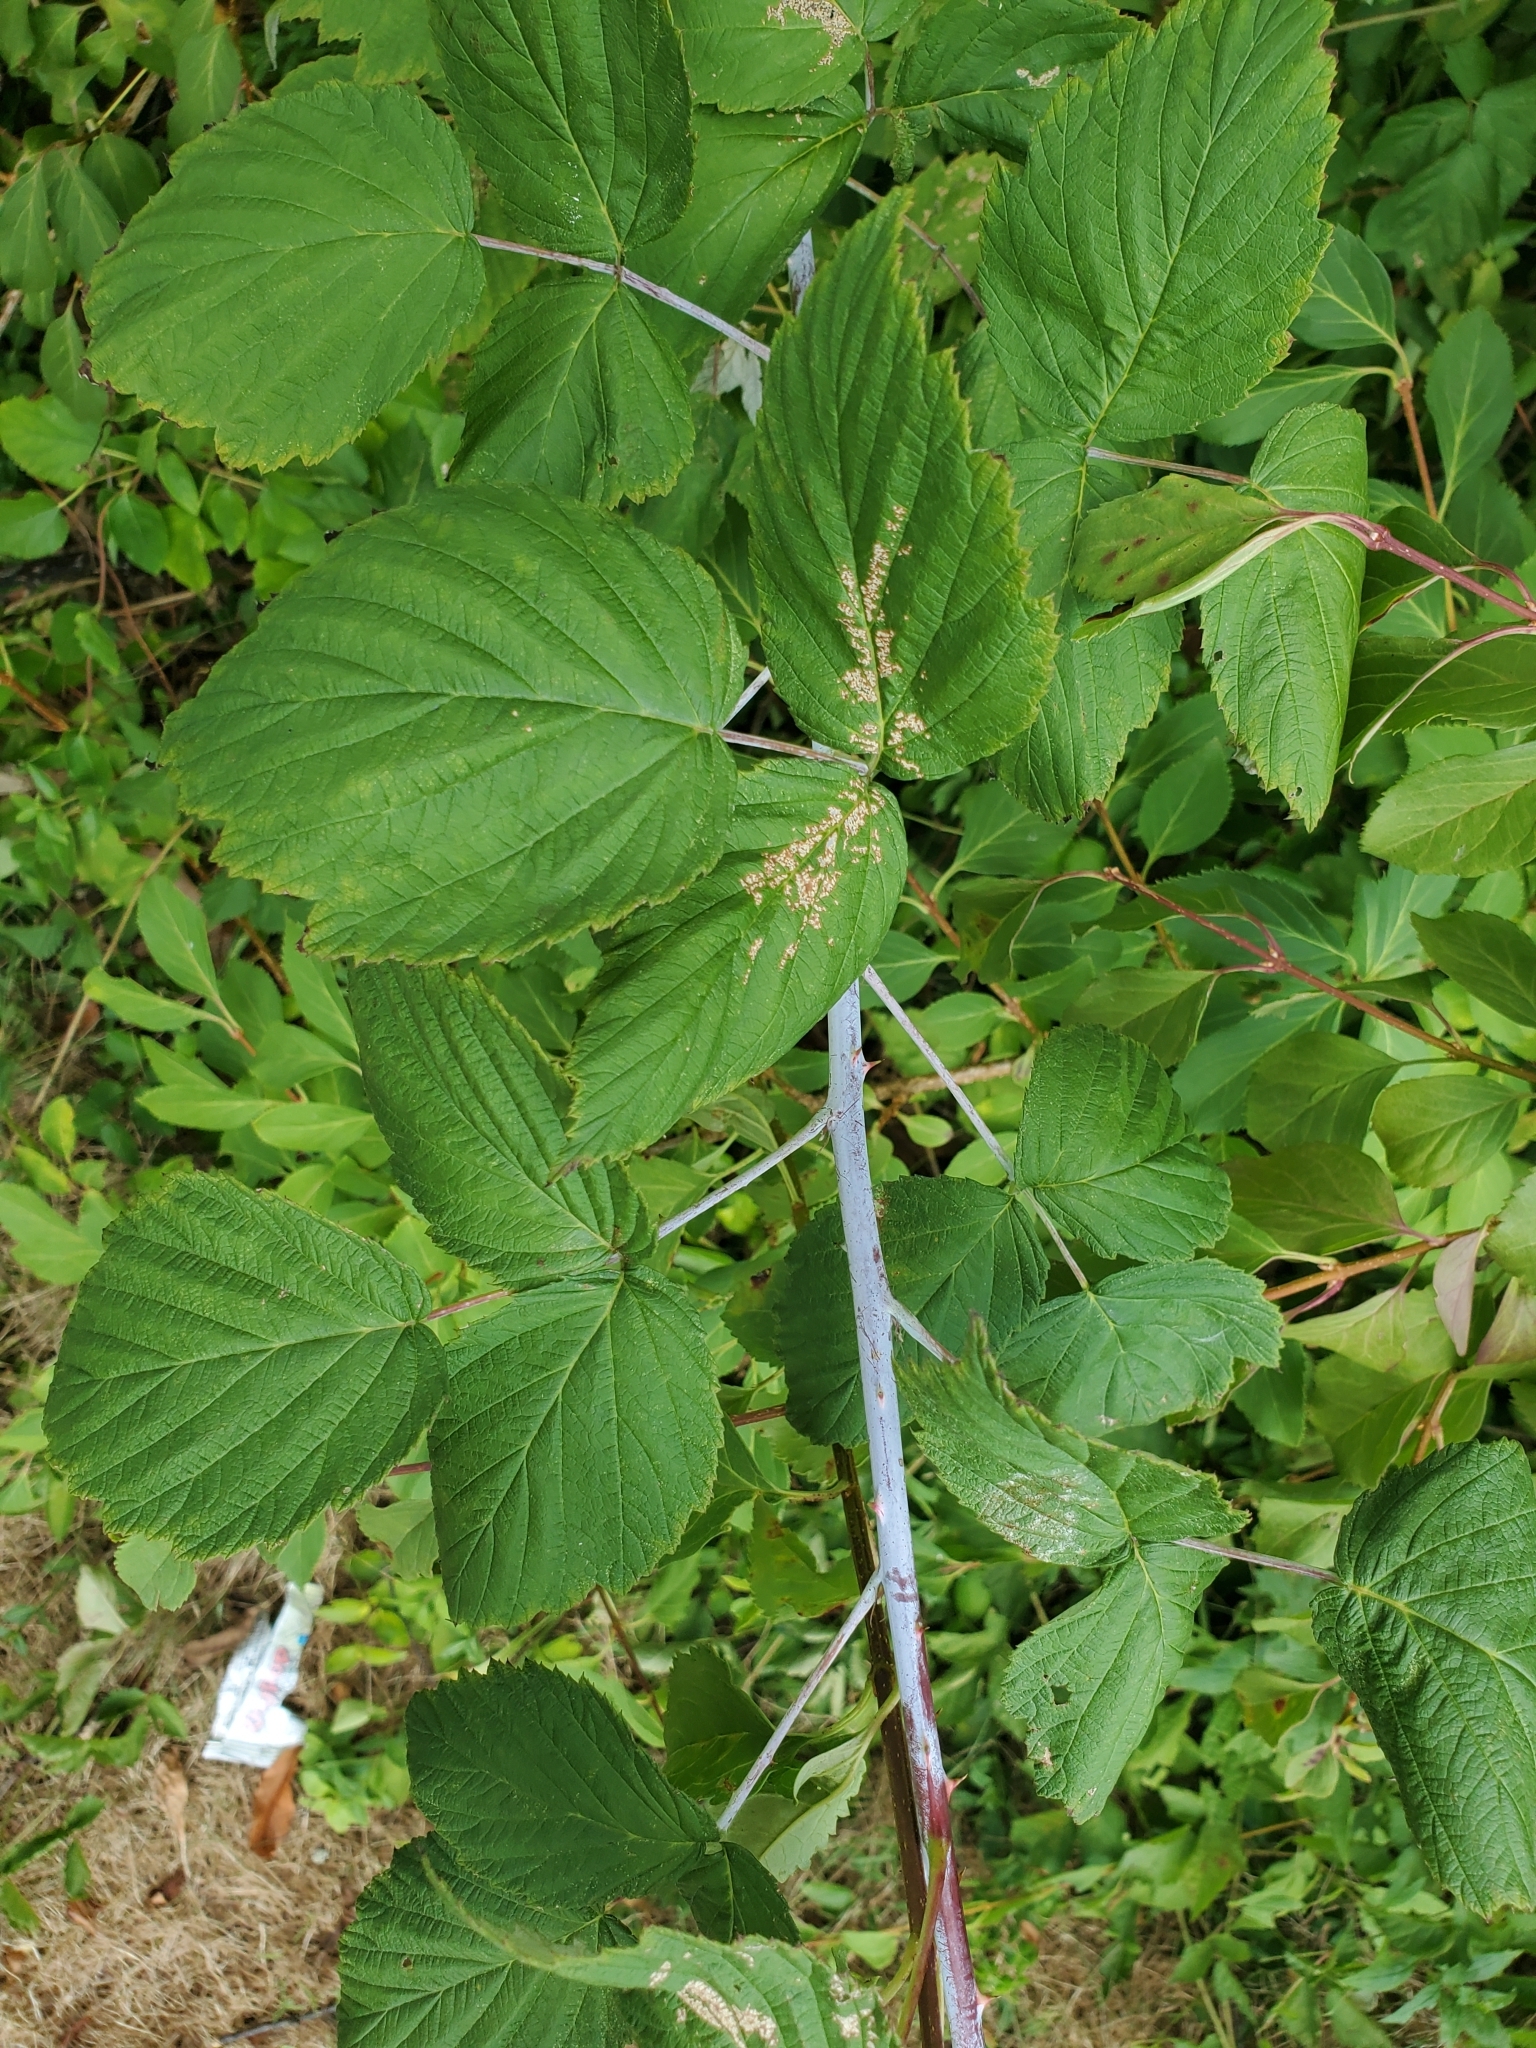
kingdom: Plantae
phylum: Tracheophyta
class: Magnoliopsida
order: Rosales
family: Rosaceae
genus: Rubus
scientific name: Rubus occidentalis
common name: Black raspberry
